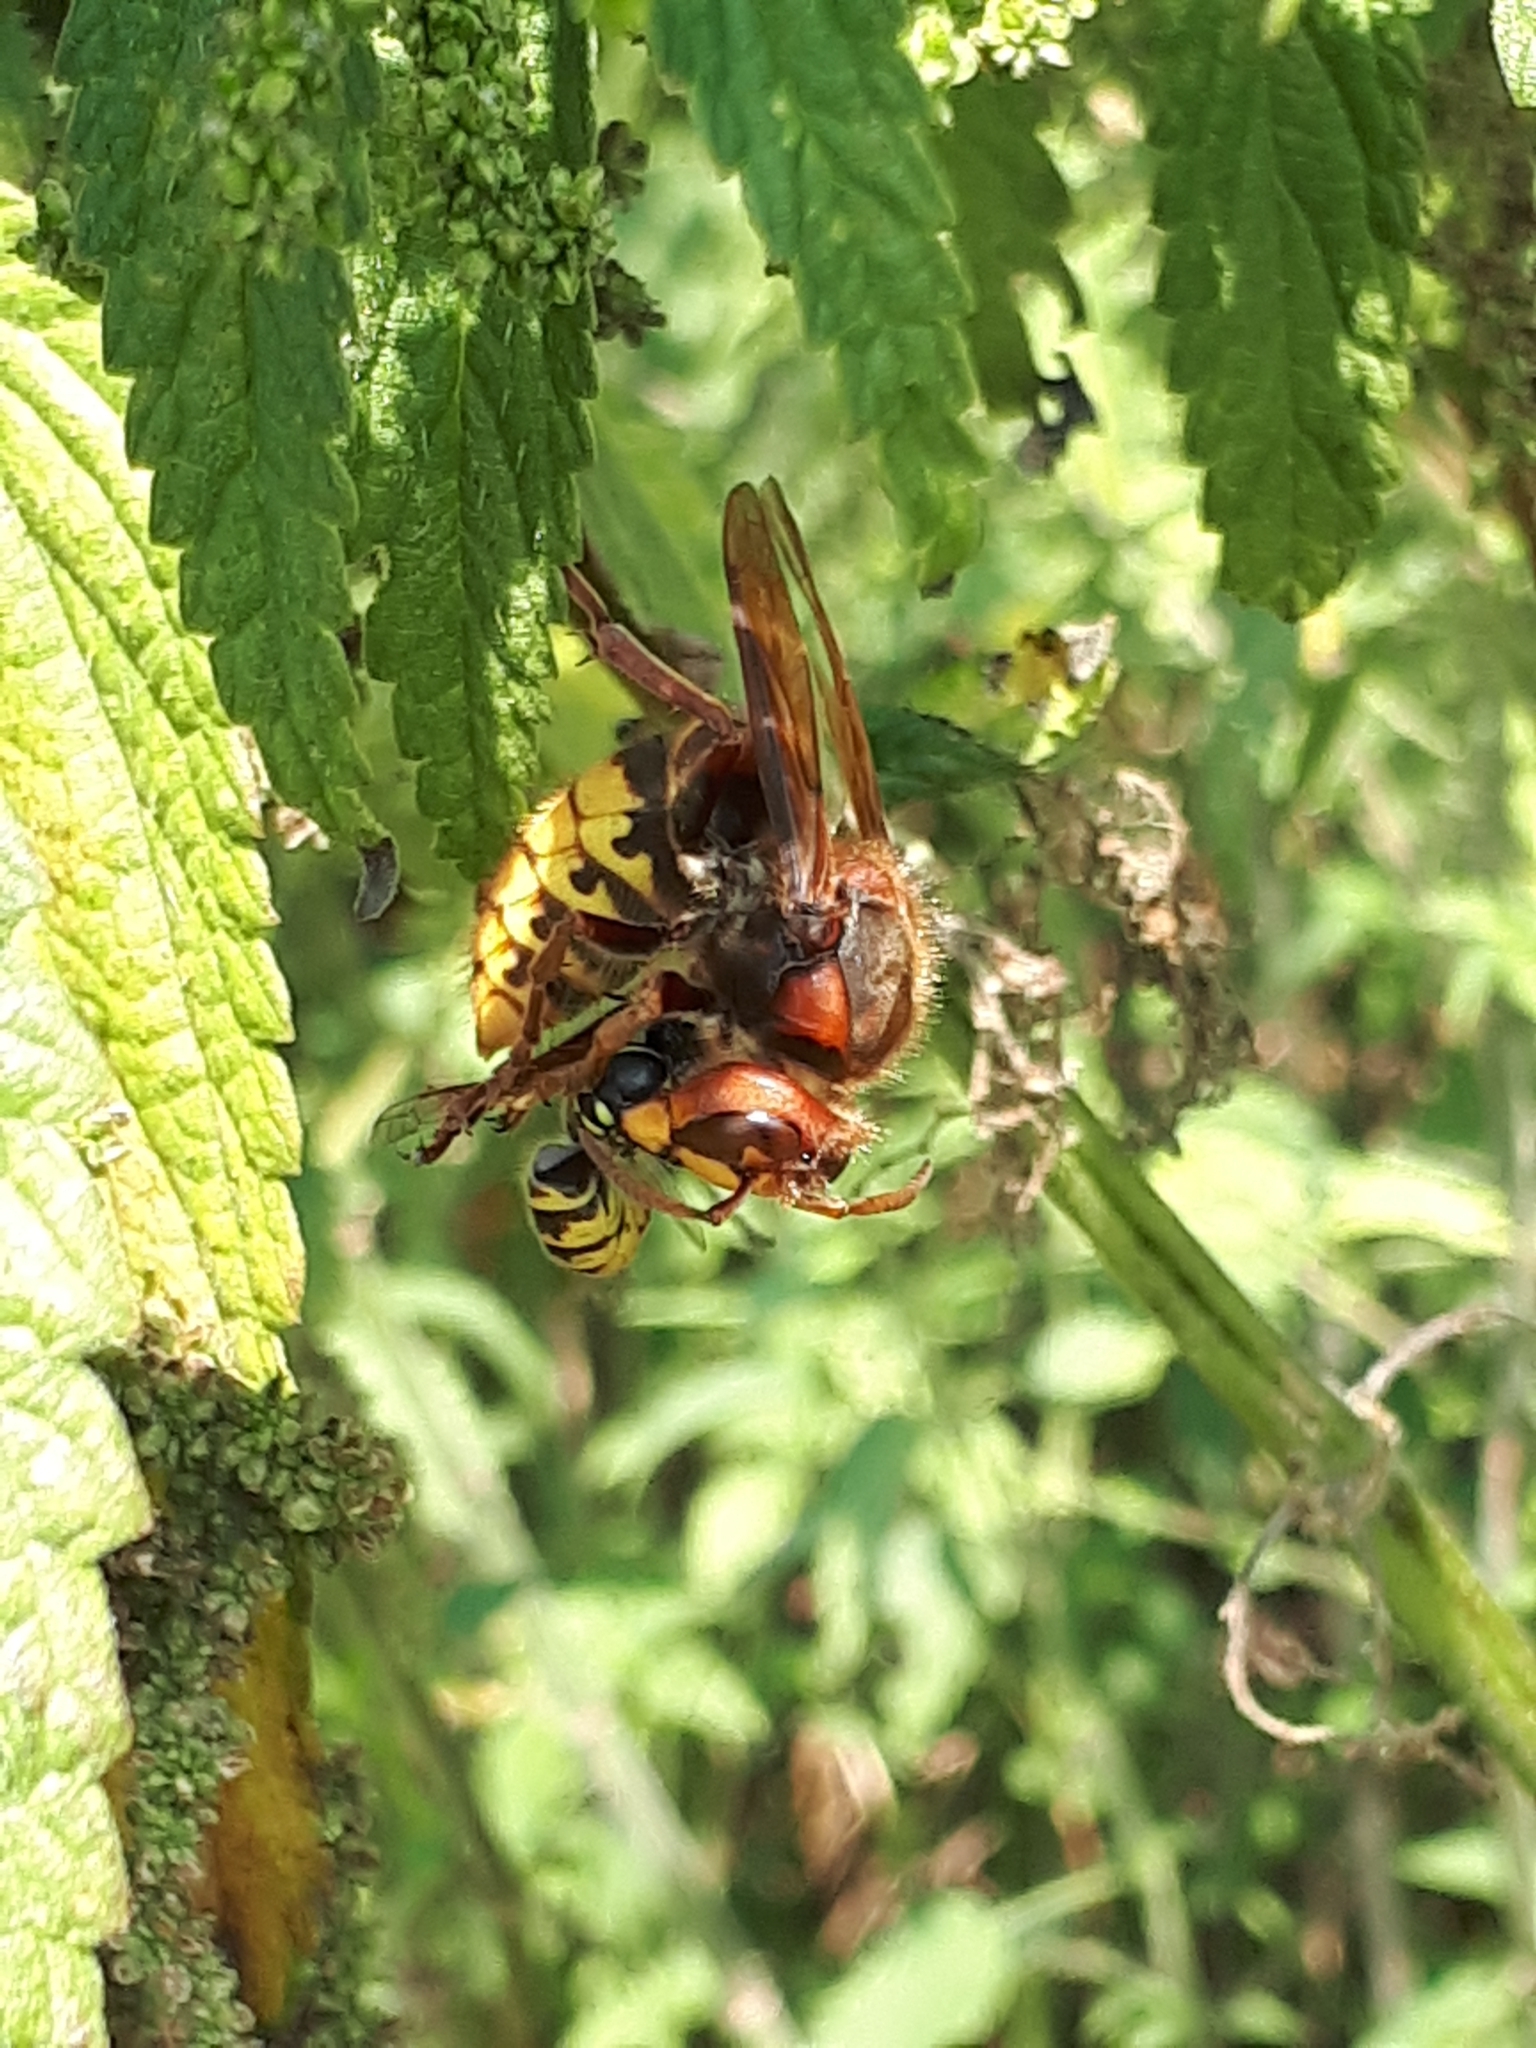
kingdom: Animalia
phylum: Arthropoda
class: Insecta
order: Hymenoptera
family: Vespidae
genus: Vespa
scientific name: Vespa crabro
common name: Hornet
